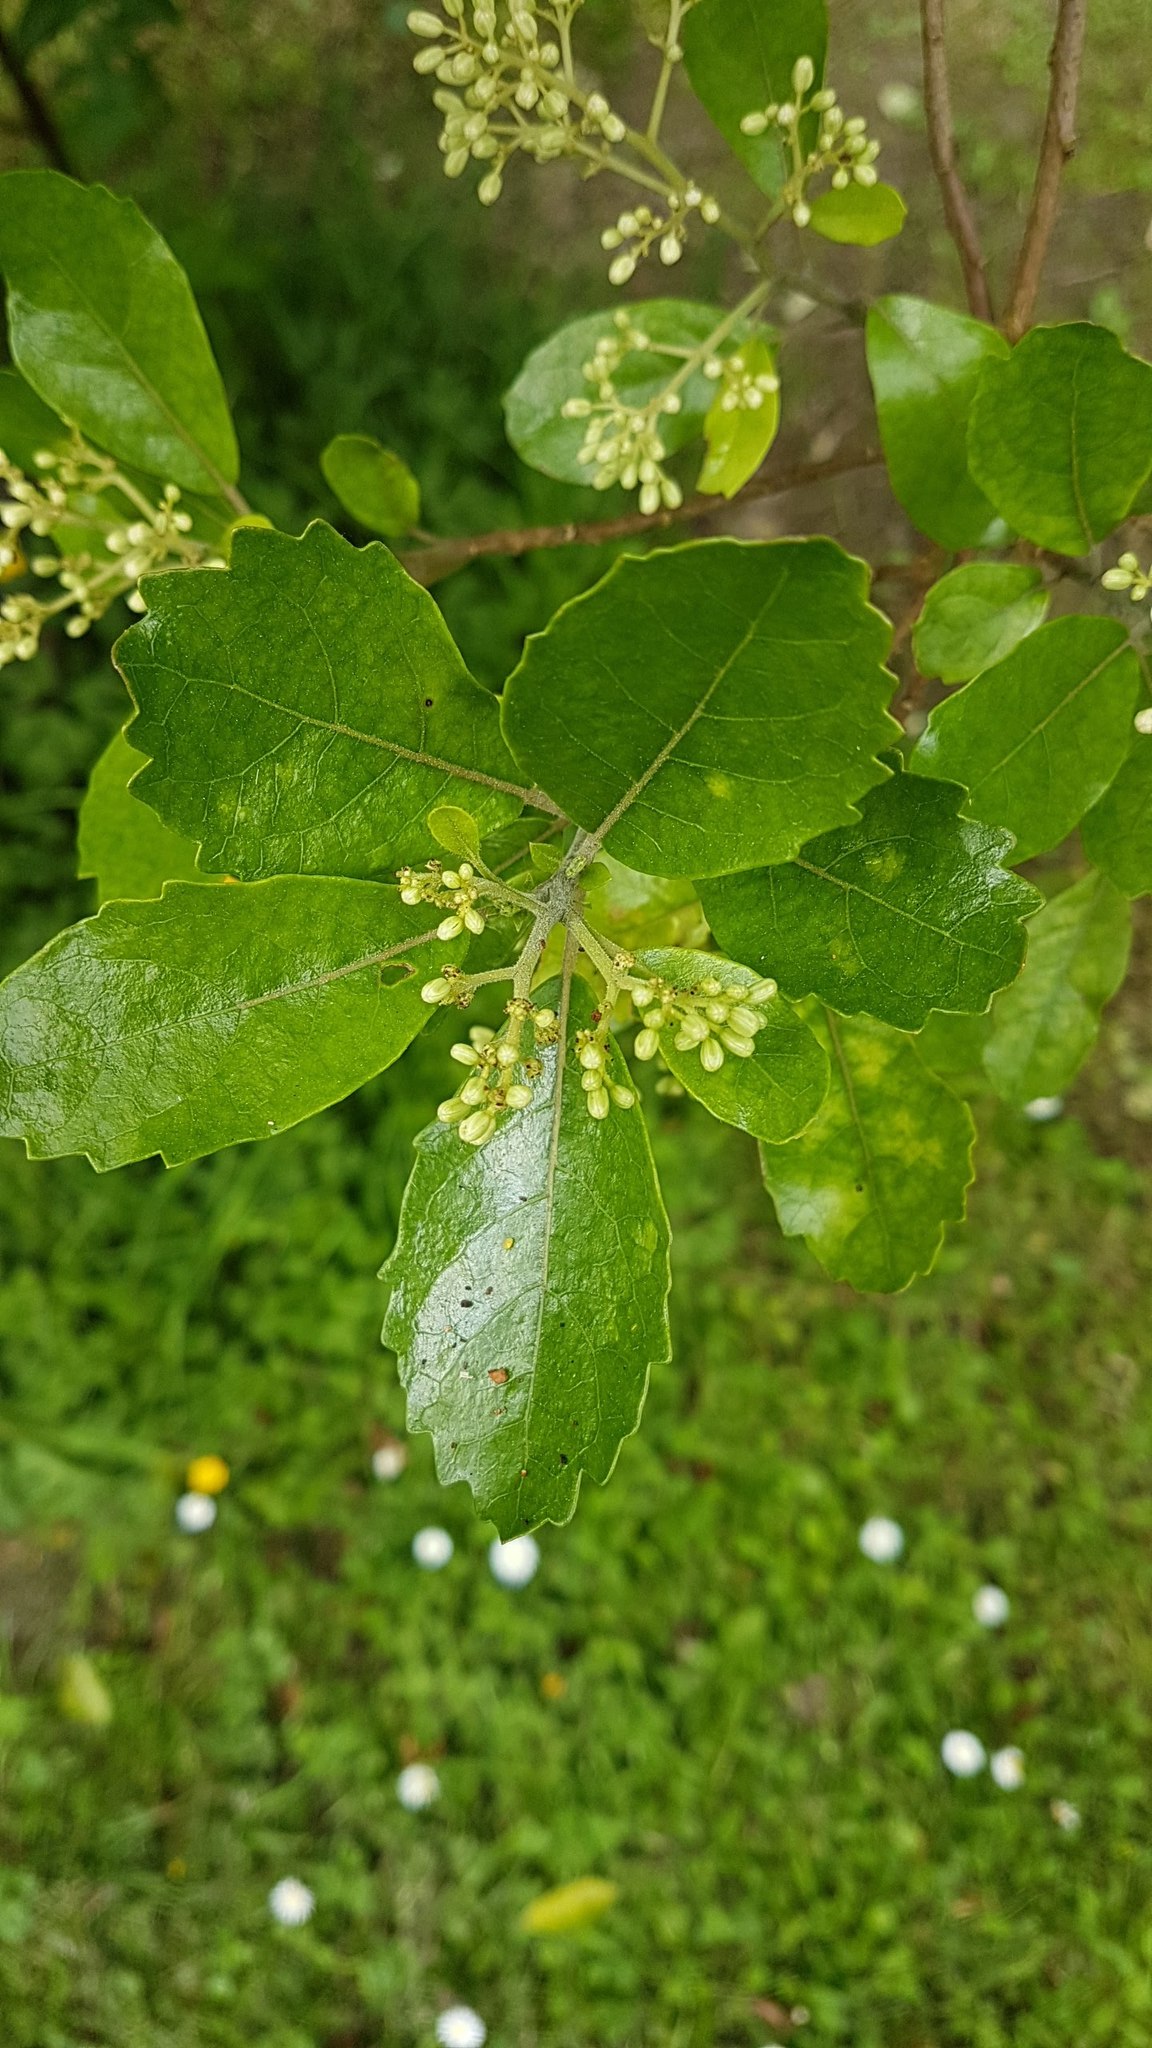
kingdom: Plantae
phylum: Tracheophyta
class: Magnoliopsida
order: Apiales
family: Pennantiaceae
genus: Pennantia
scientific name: Pennantia corymbosa
